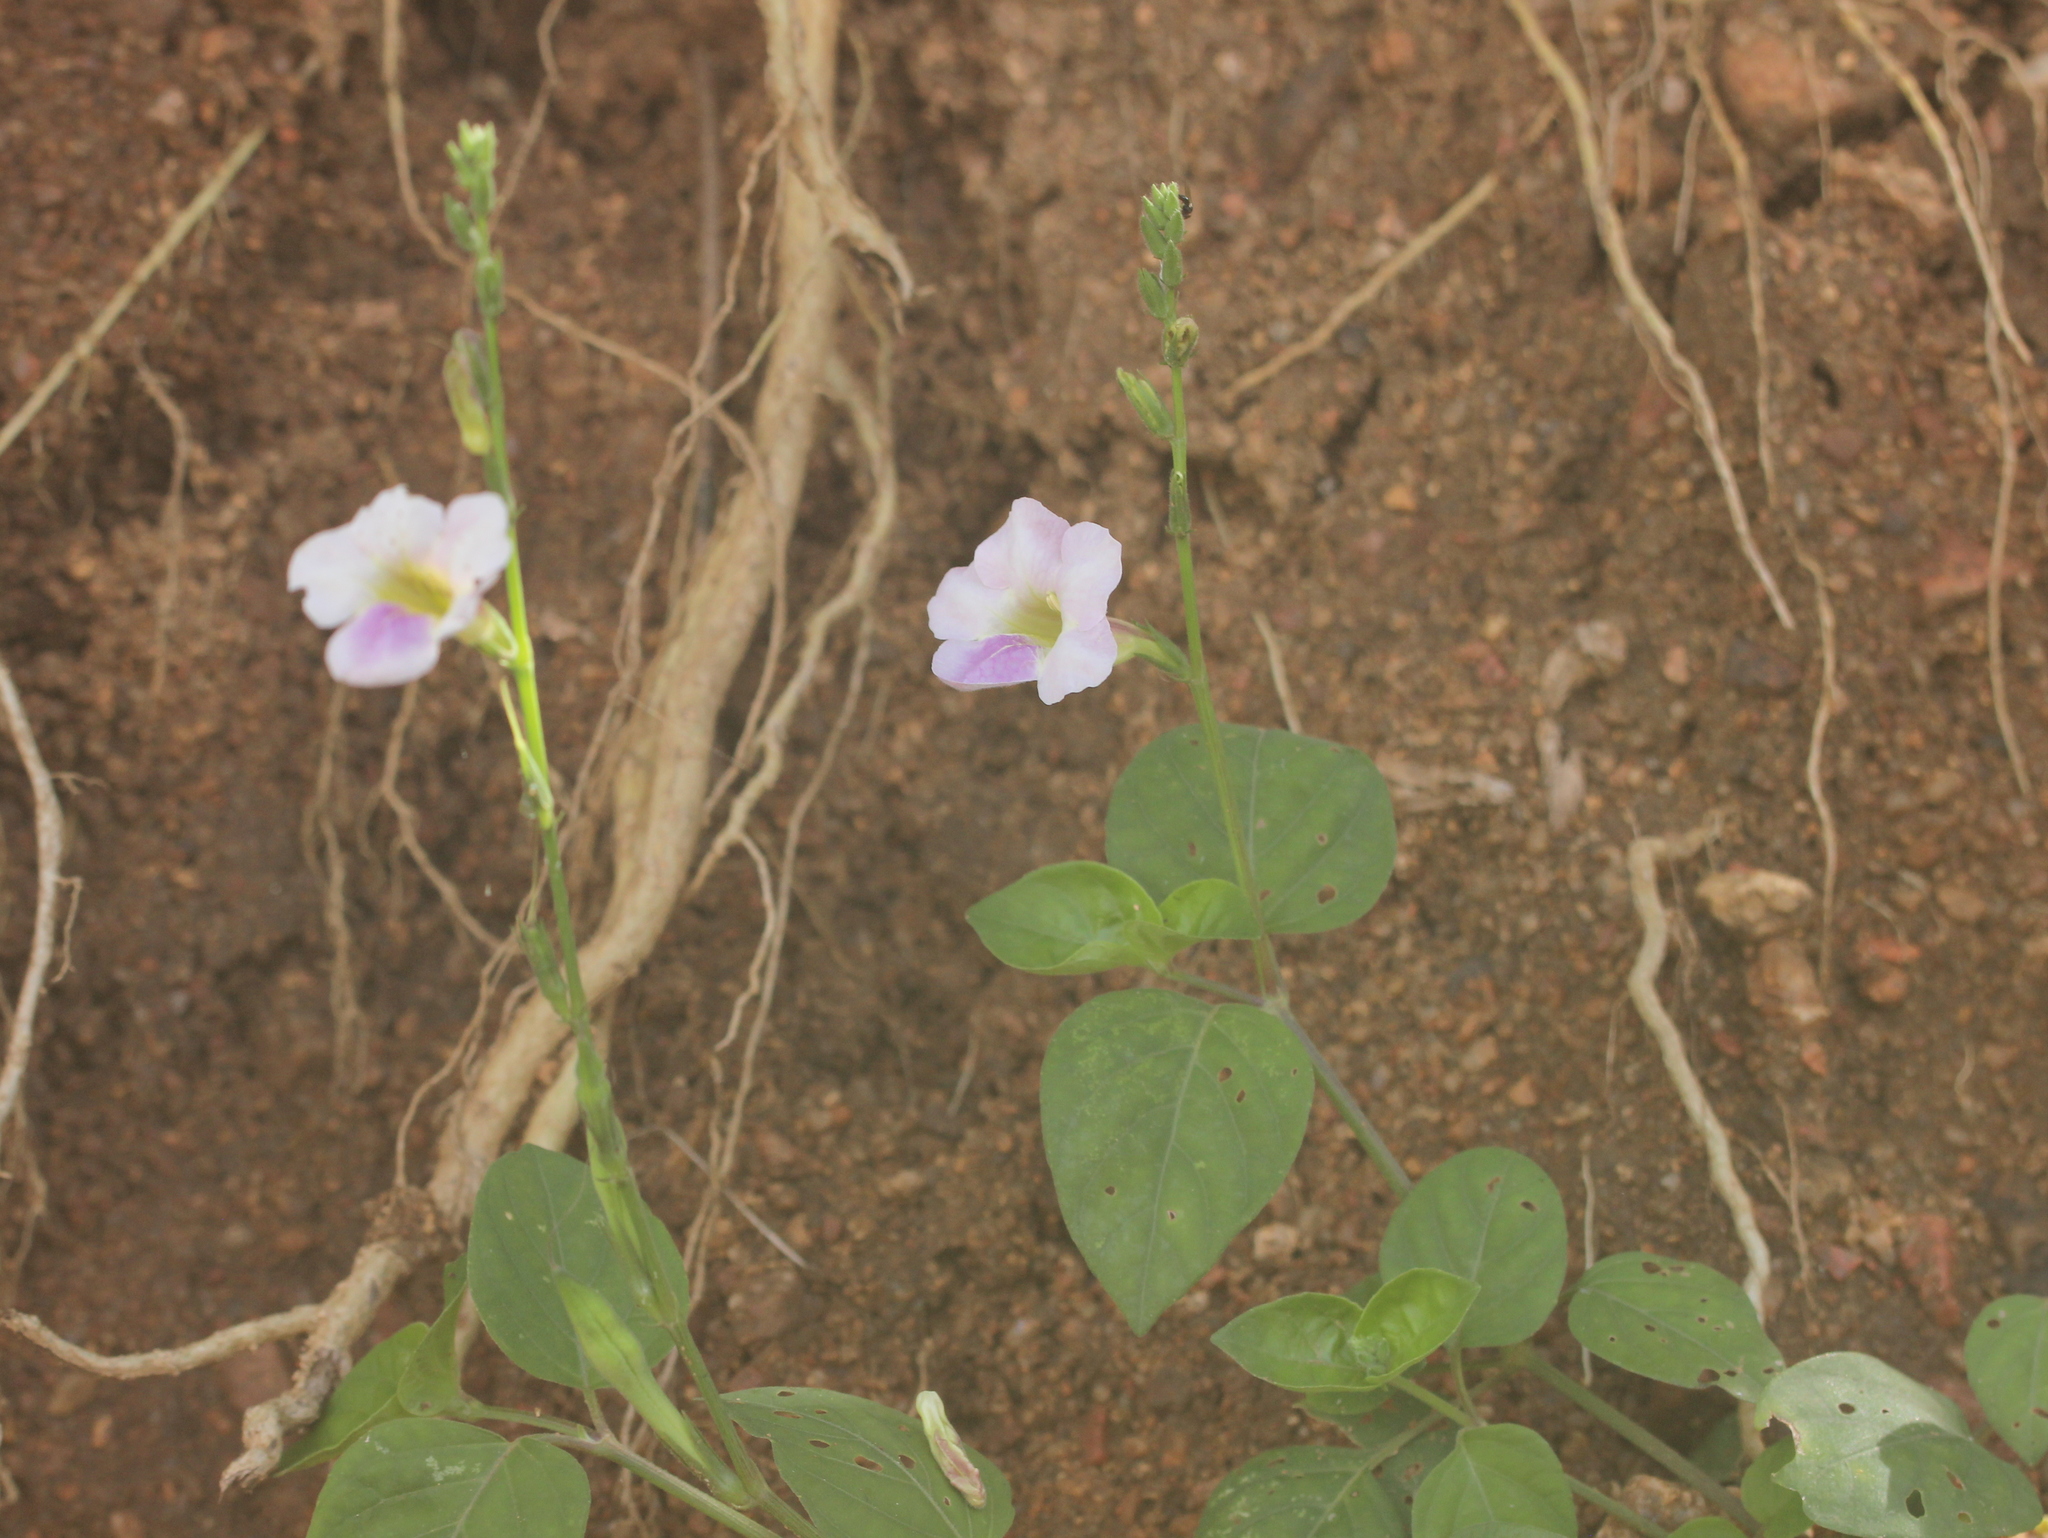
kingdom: Plantae
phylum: Tracheophyta
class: Magnoliopsida
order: Lamiales
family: Acanthaceae
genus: Asystasia
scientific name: Asystasia gangetica
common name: Chinese violet
